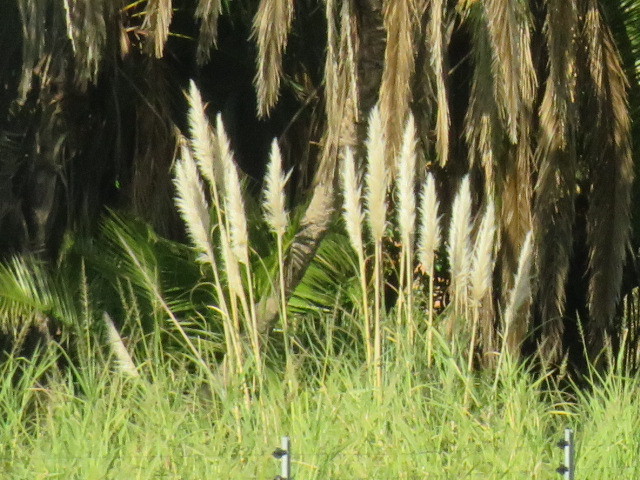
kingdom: Plantae
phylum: Tracheophyta
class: Liliopsida
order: Poales
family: Poaceae
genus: Cortaderia
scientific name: Cortaderia selloana
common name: Uruguayan pampas grass
